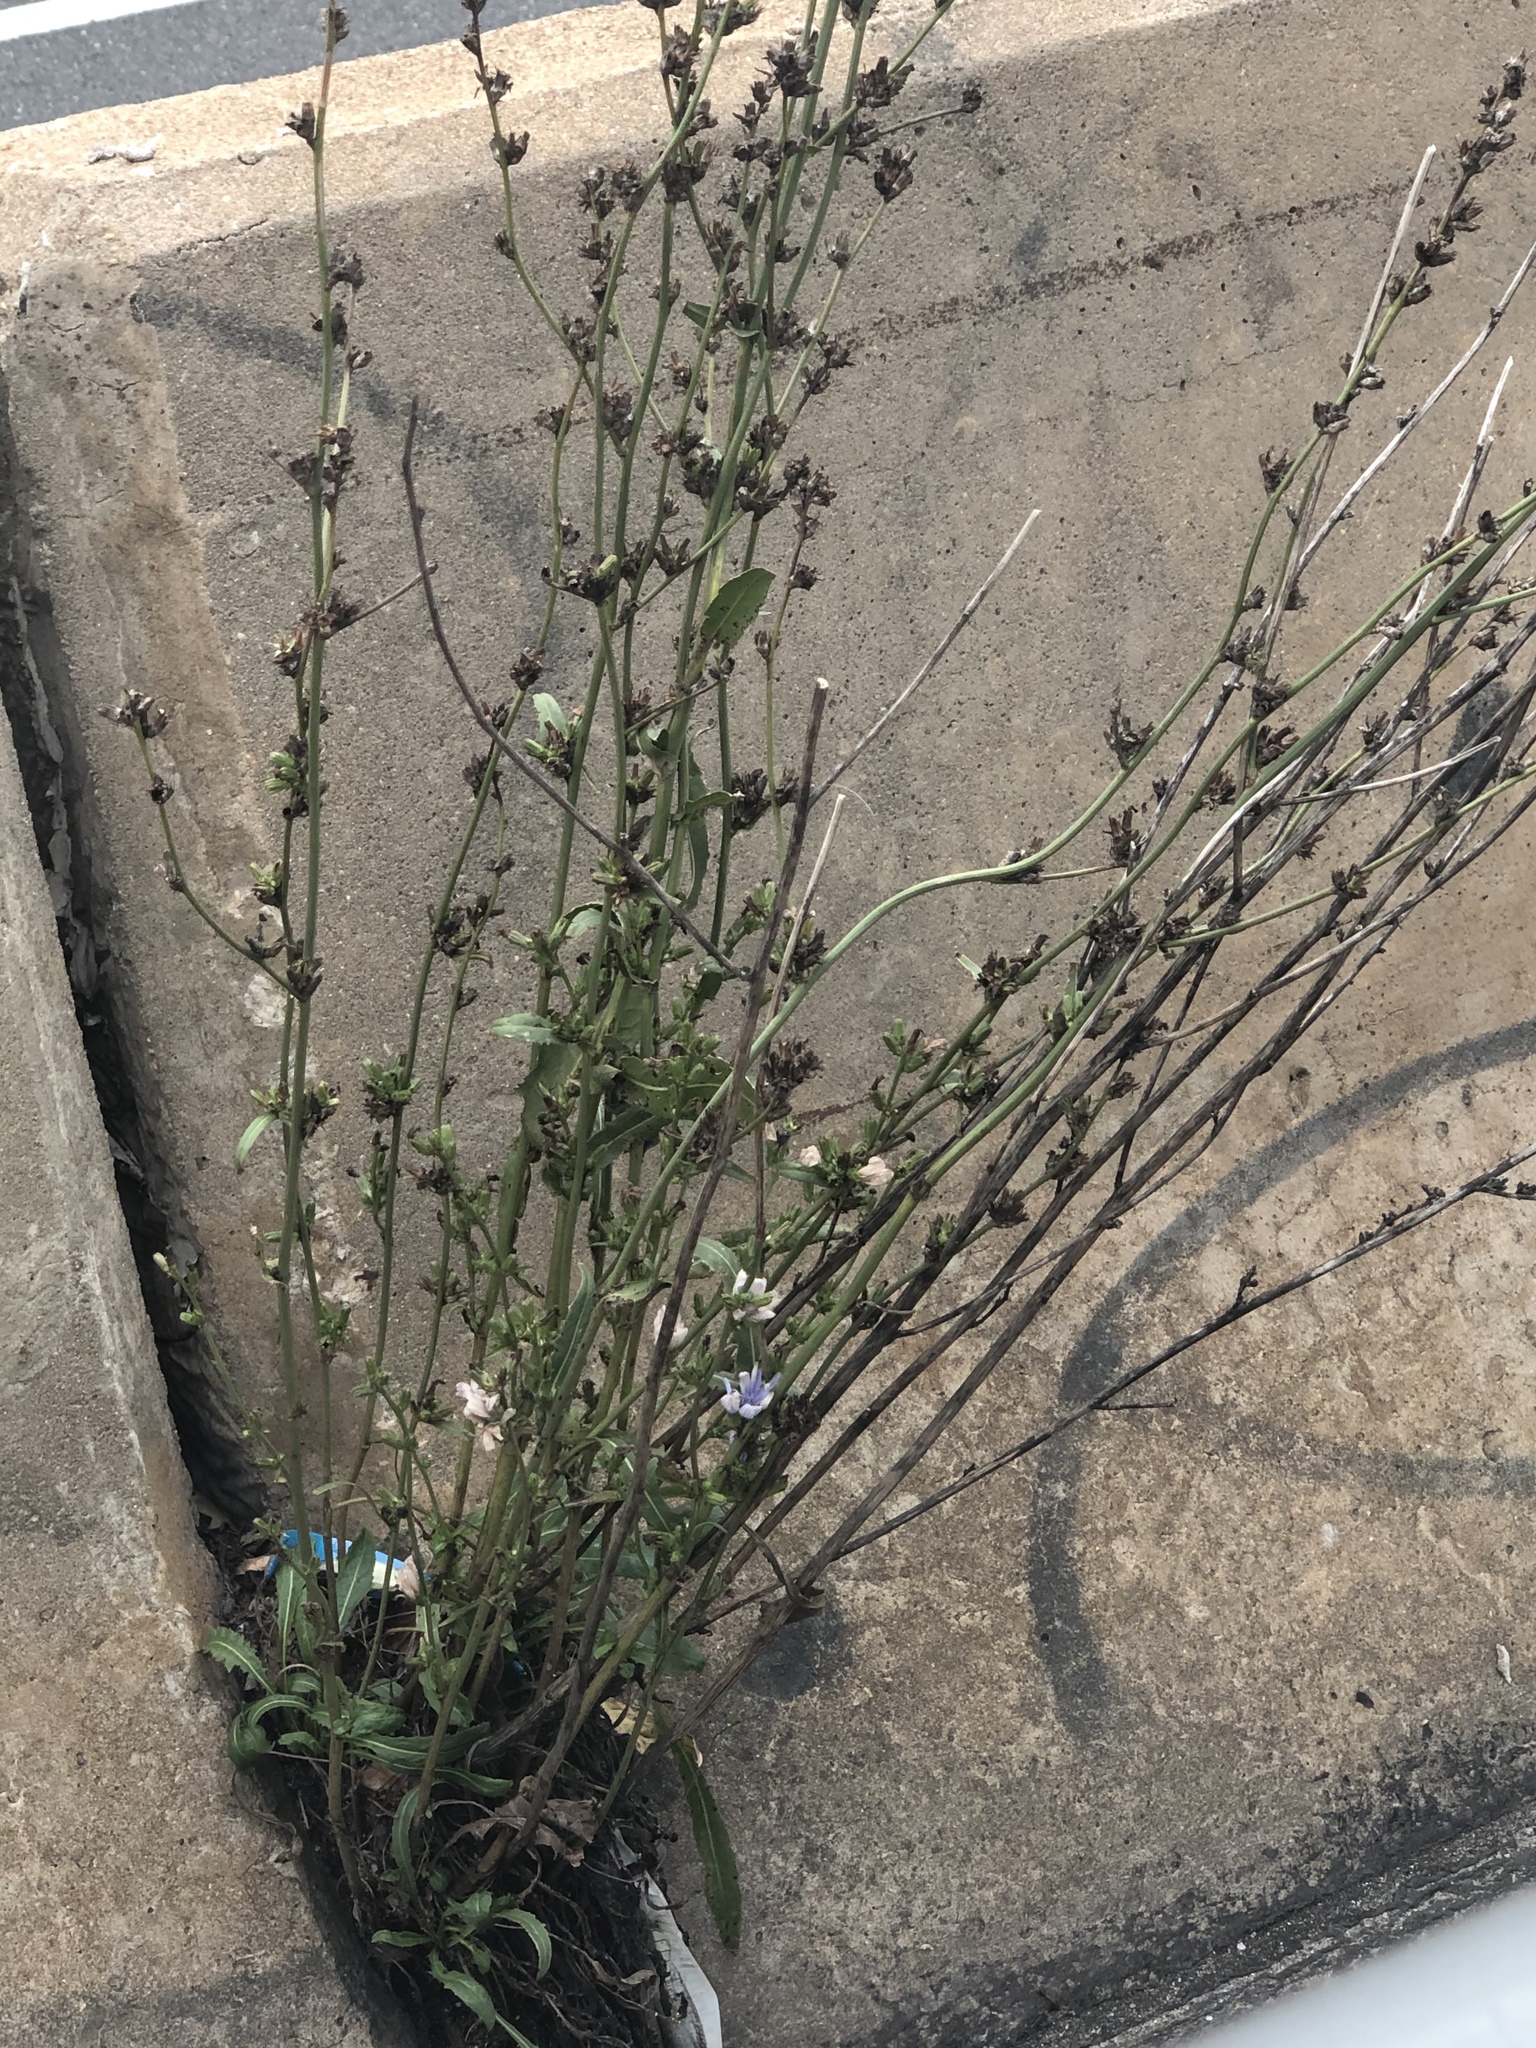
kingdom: Plantae
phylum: Tracheophyta
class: Magnoliopsida
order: Asterales
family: Asteraceae
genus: Cichorium
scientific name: Cichorium intybus
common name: Chicory
